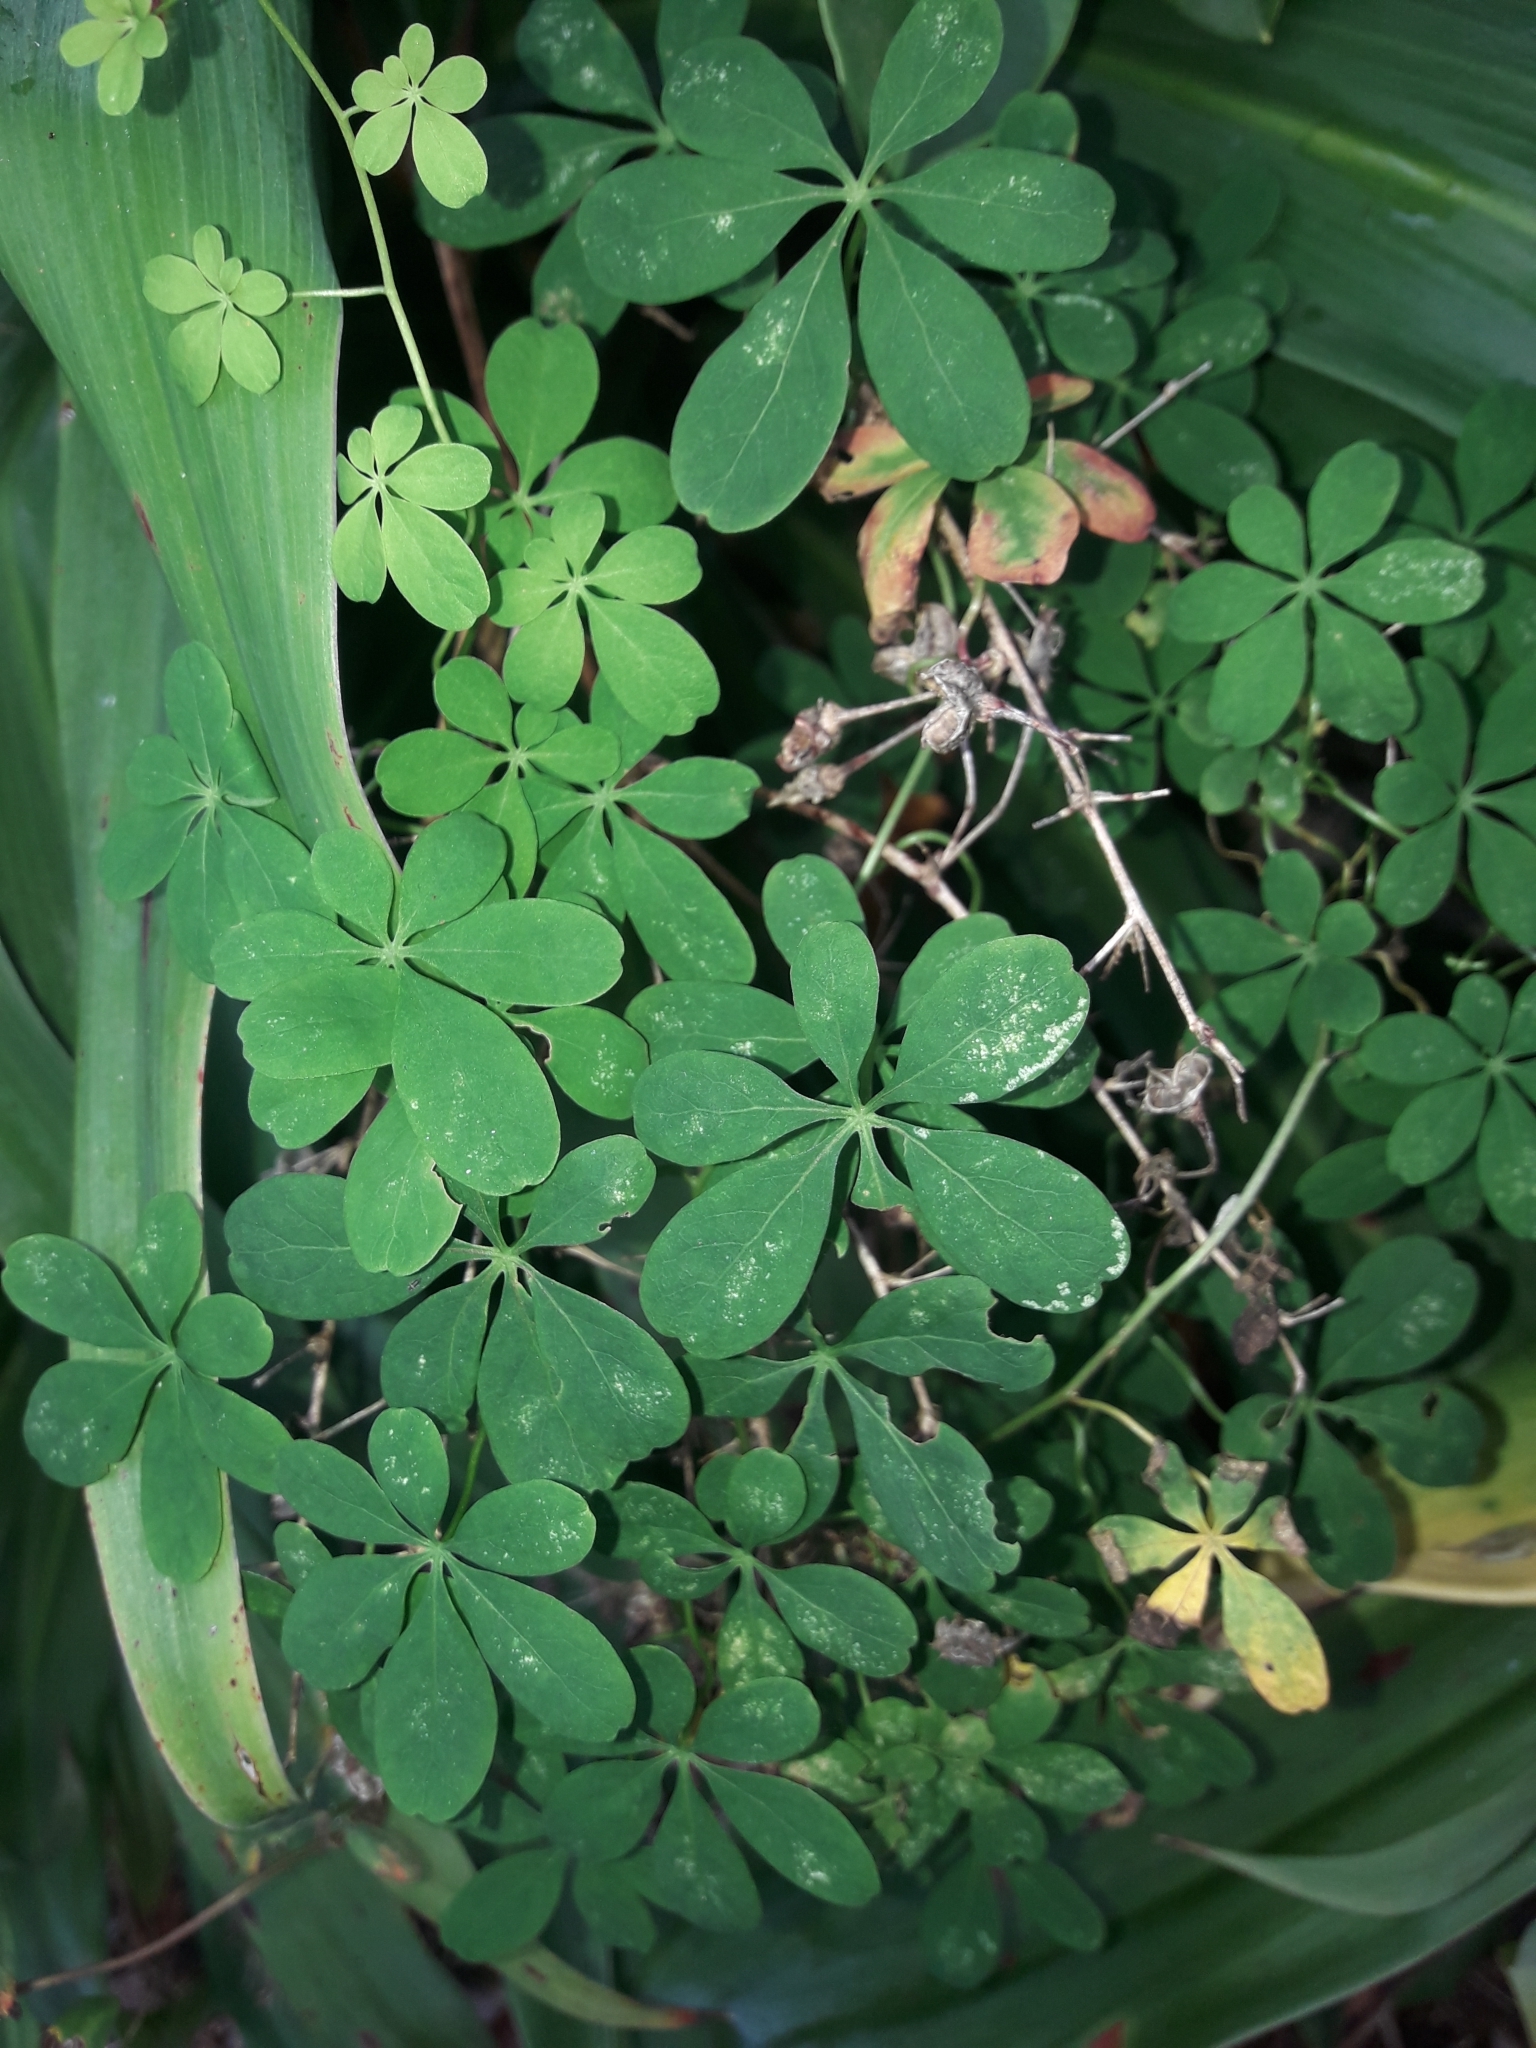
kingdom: Plantae
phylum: Tracheophyta
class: Magnoliopsida
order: Brassicales
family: Tropaeolaceae
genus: Tropaeolum
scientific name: Tropaeolum speciosum
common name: Flame nasturtium
